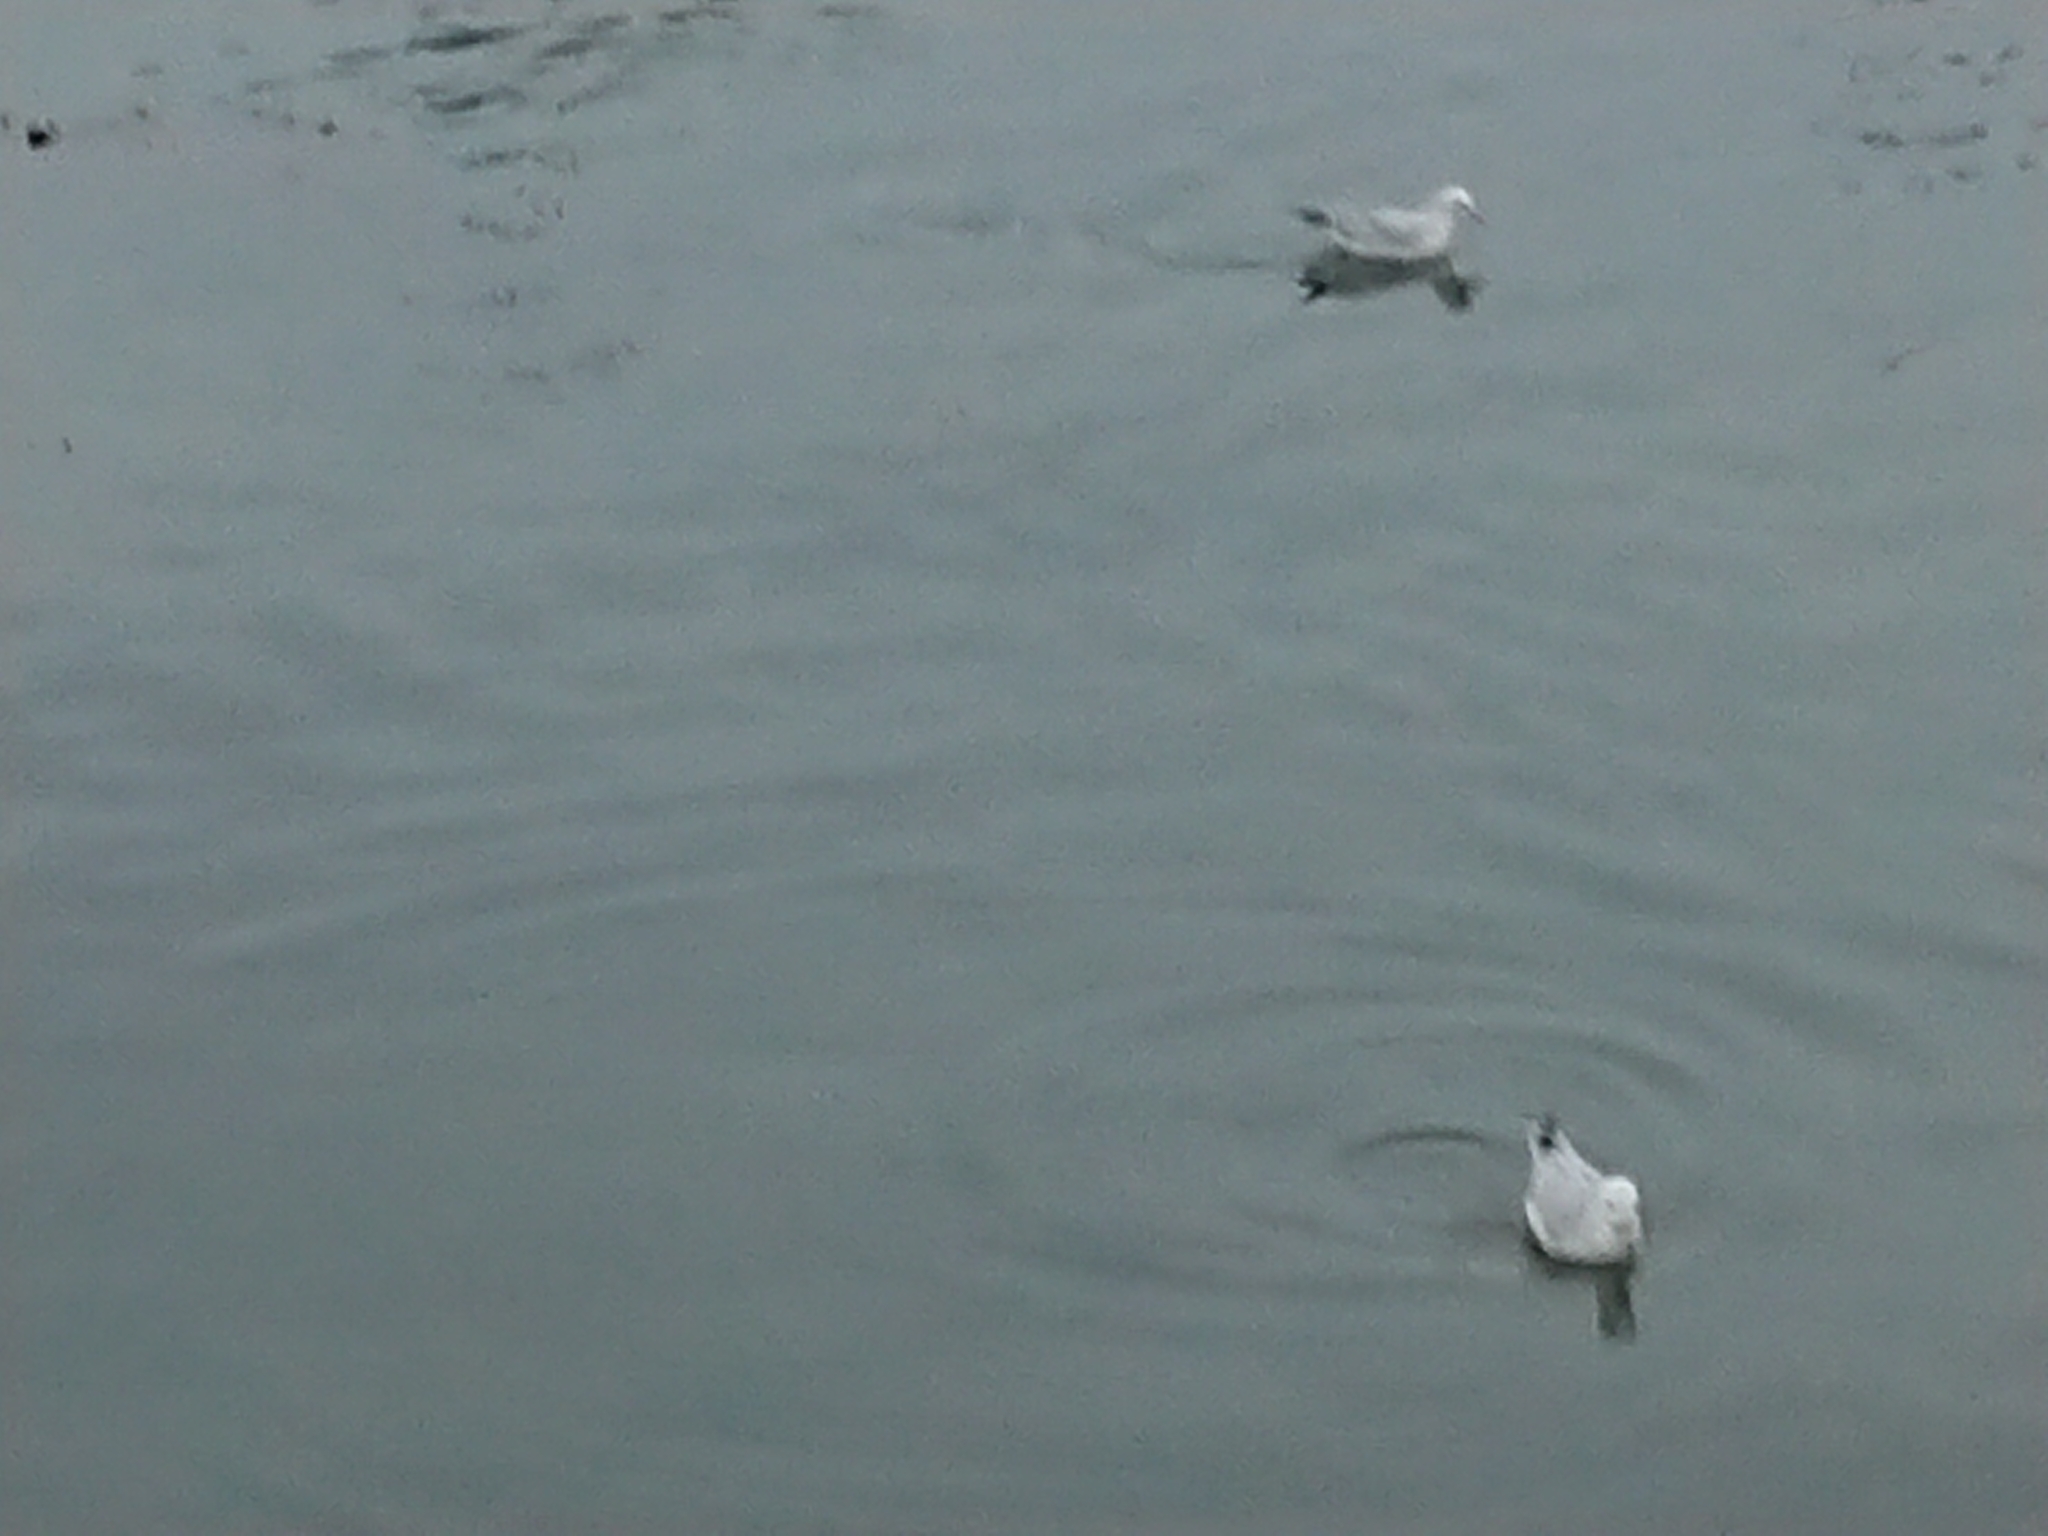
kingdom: Animalia
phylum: Chordata
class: Aves
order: Procellariiformes
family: Procellariidae
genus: Fulmarus
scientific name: Fulmarus glacialoides
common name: Southern fulmar
